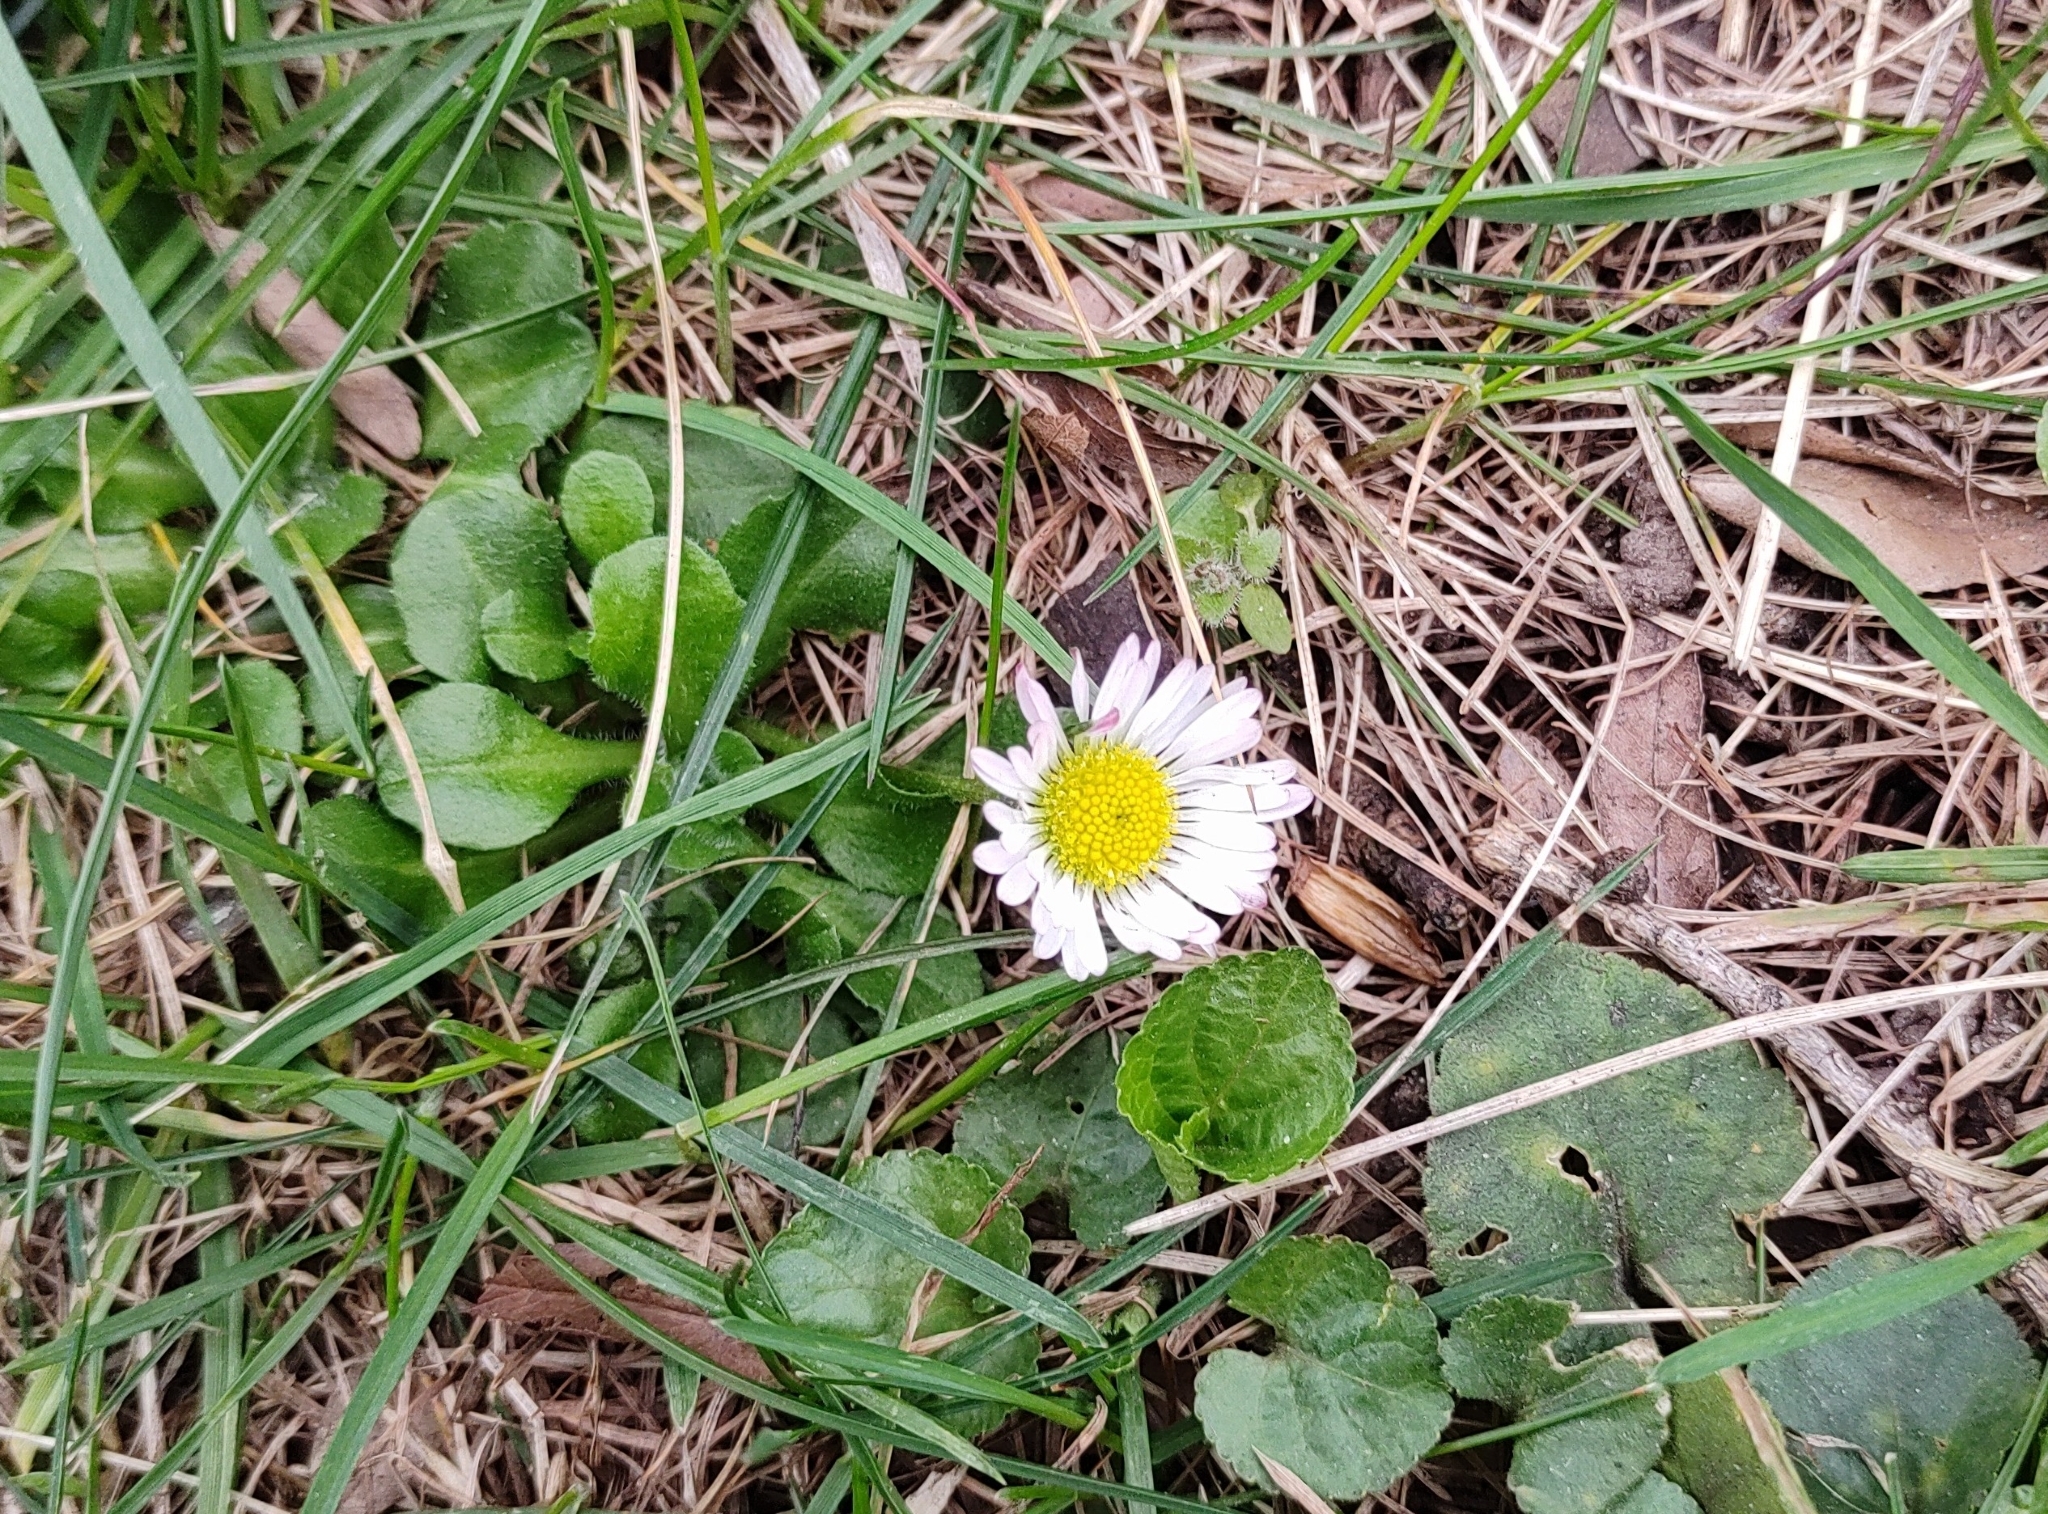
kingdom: Plantae
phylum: Tracheophyta
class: Magnoliopsida
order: Asterales
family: Asteraceae
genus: Bellis
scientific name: Bellis perennis
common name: Lawndaisy
